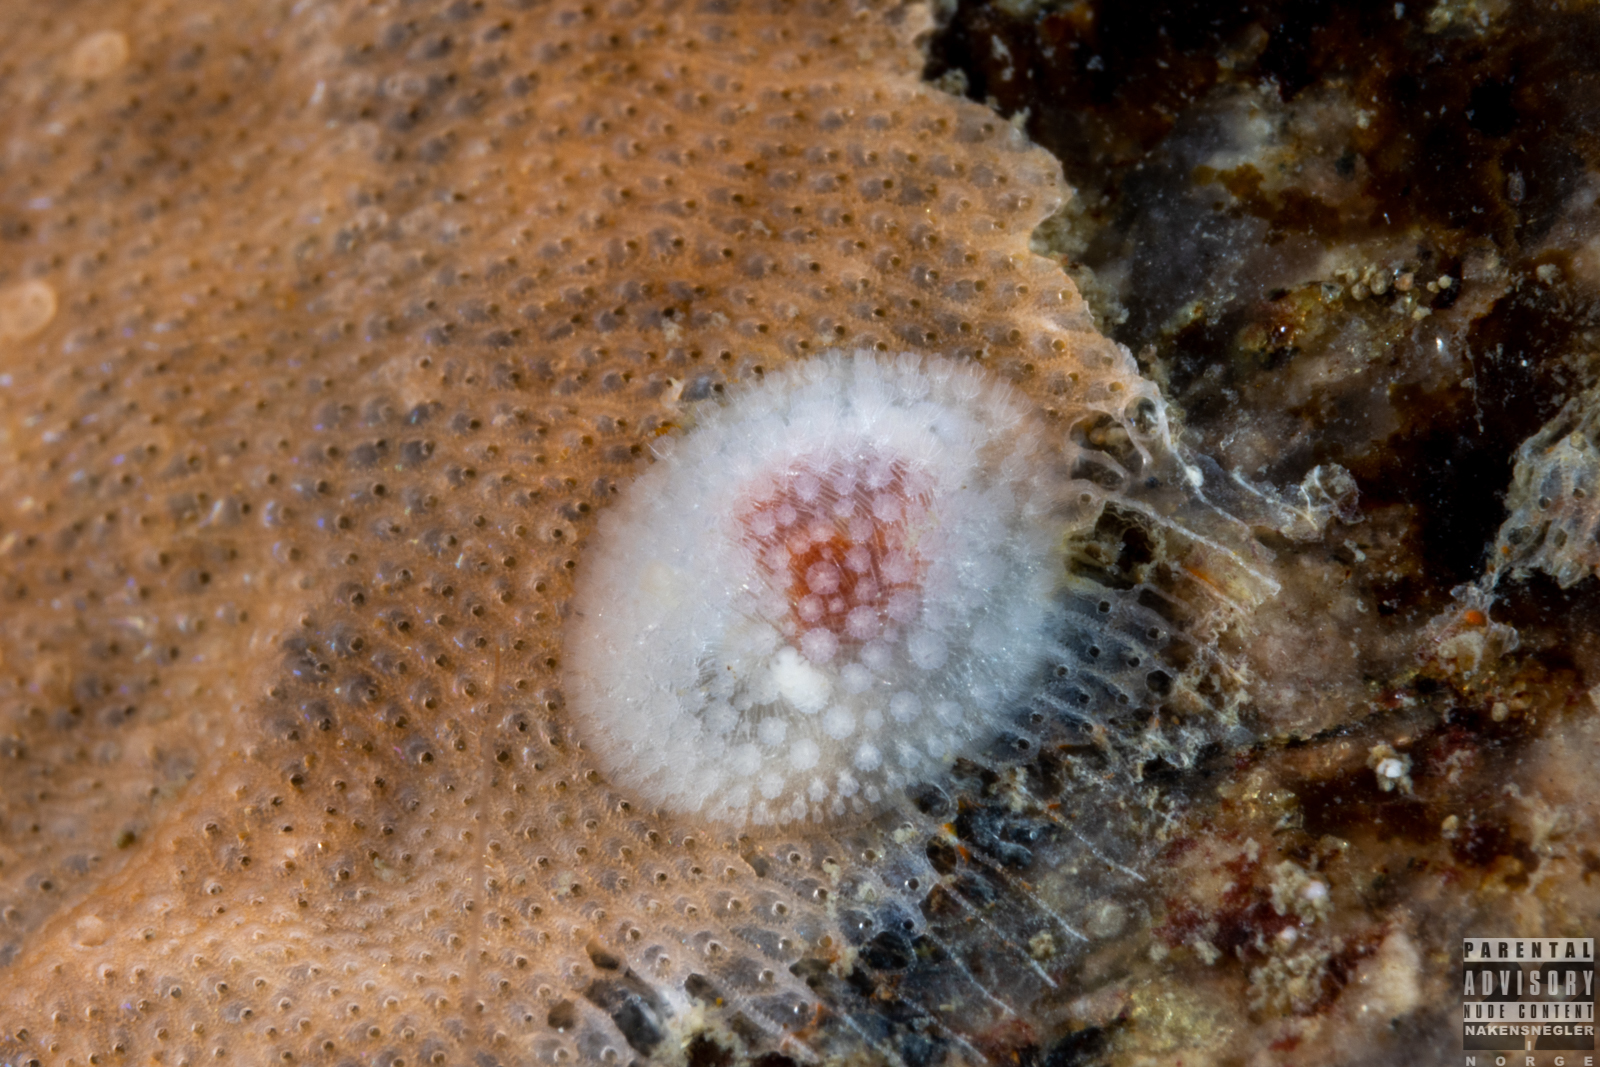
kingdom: Animalia
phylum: Mollusca
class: Gastropoda
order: Nudibranchia
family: Onchidorididae
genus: Onchidoris
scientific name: Onchidoris muricata
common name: Rough doris
